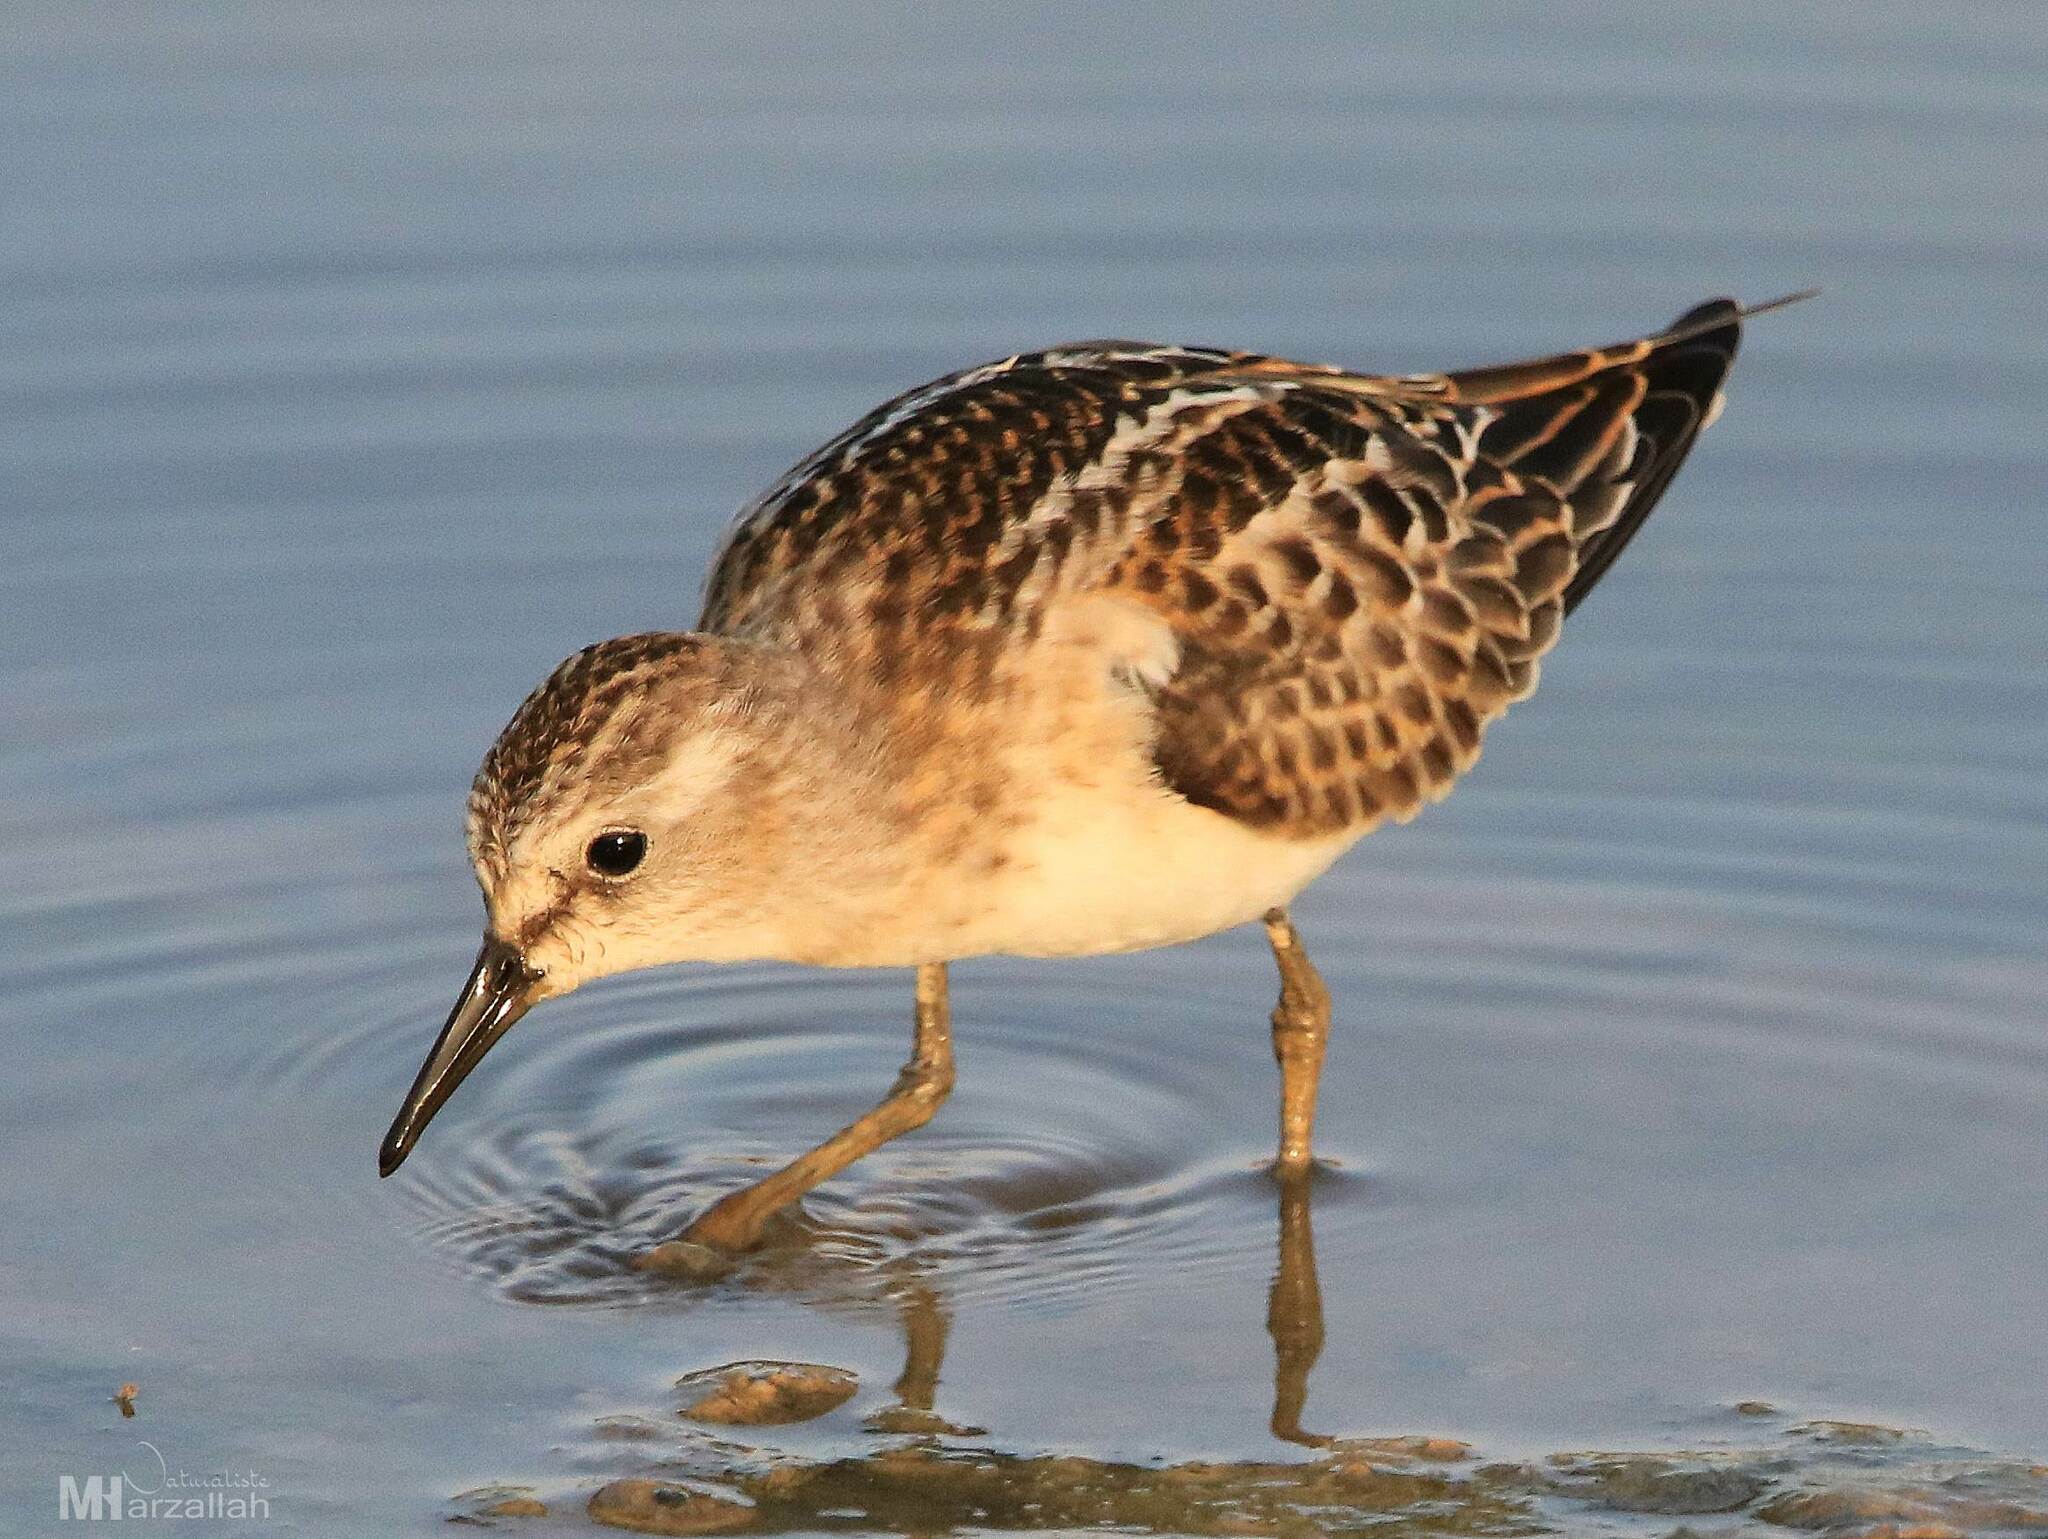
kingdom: Animalia
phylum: Chordata
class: Aves
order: Charadriiformes
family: Scolopacidae
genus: Calidris
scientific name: Calidris minuta
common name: Little stint
